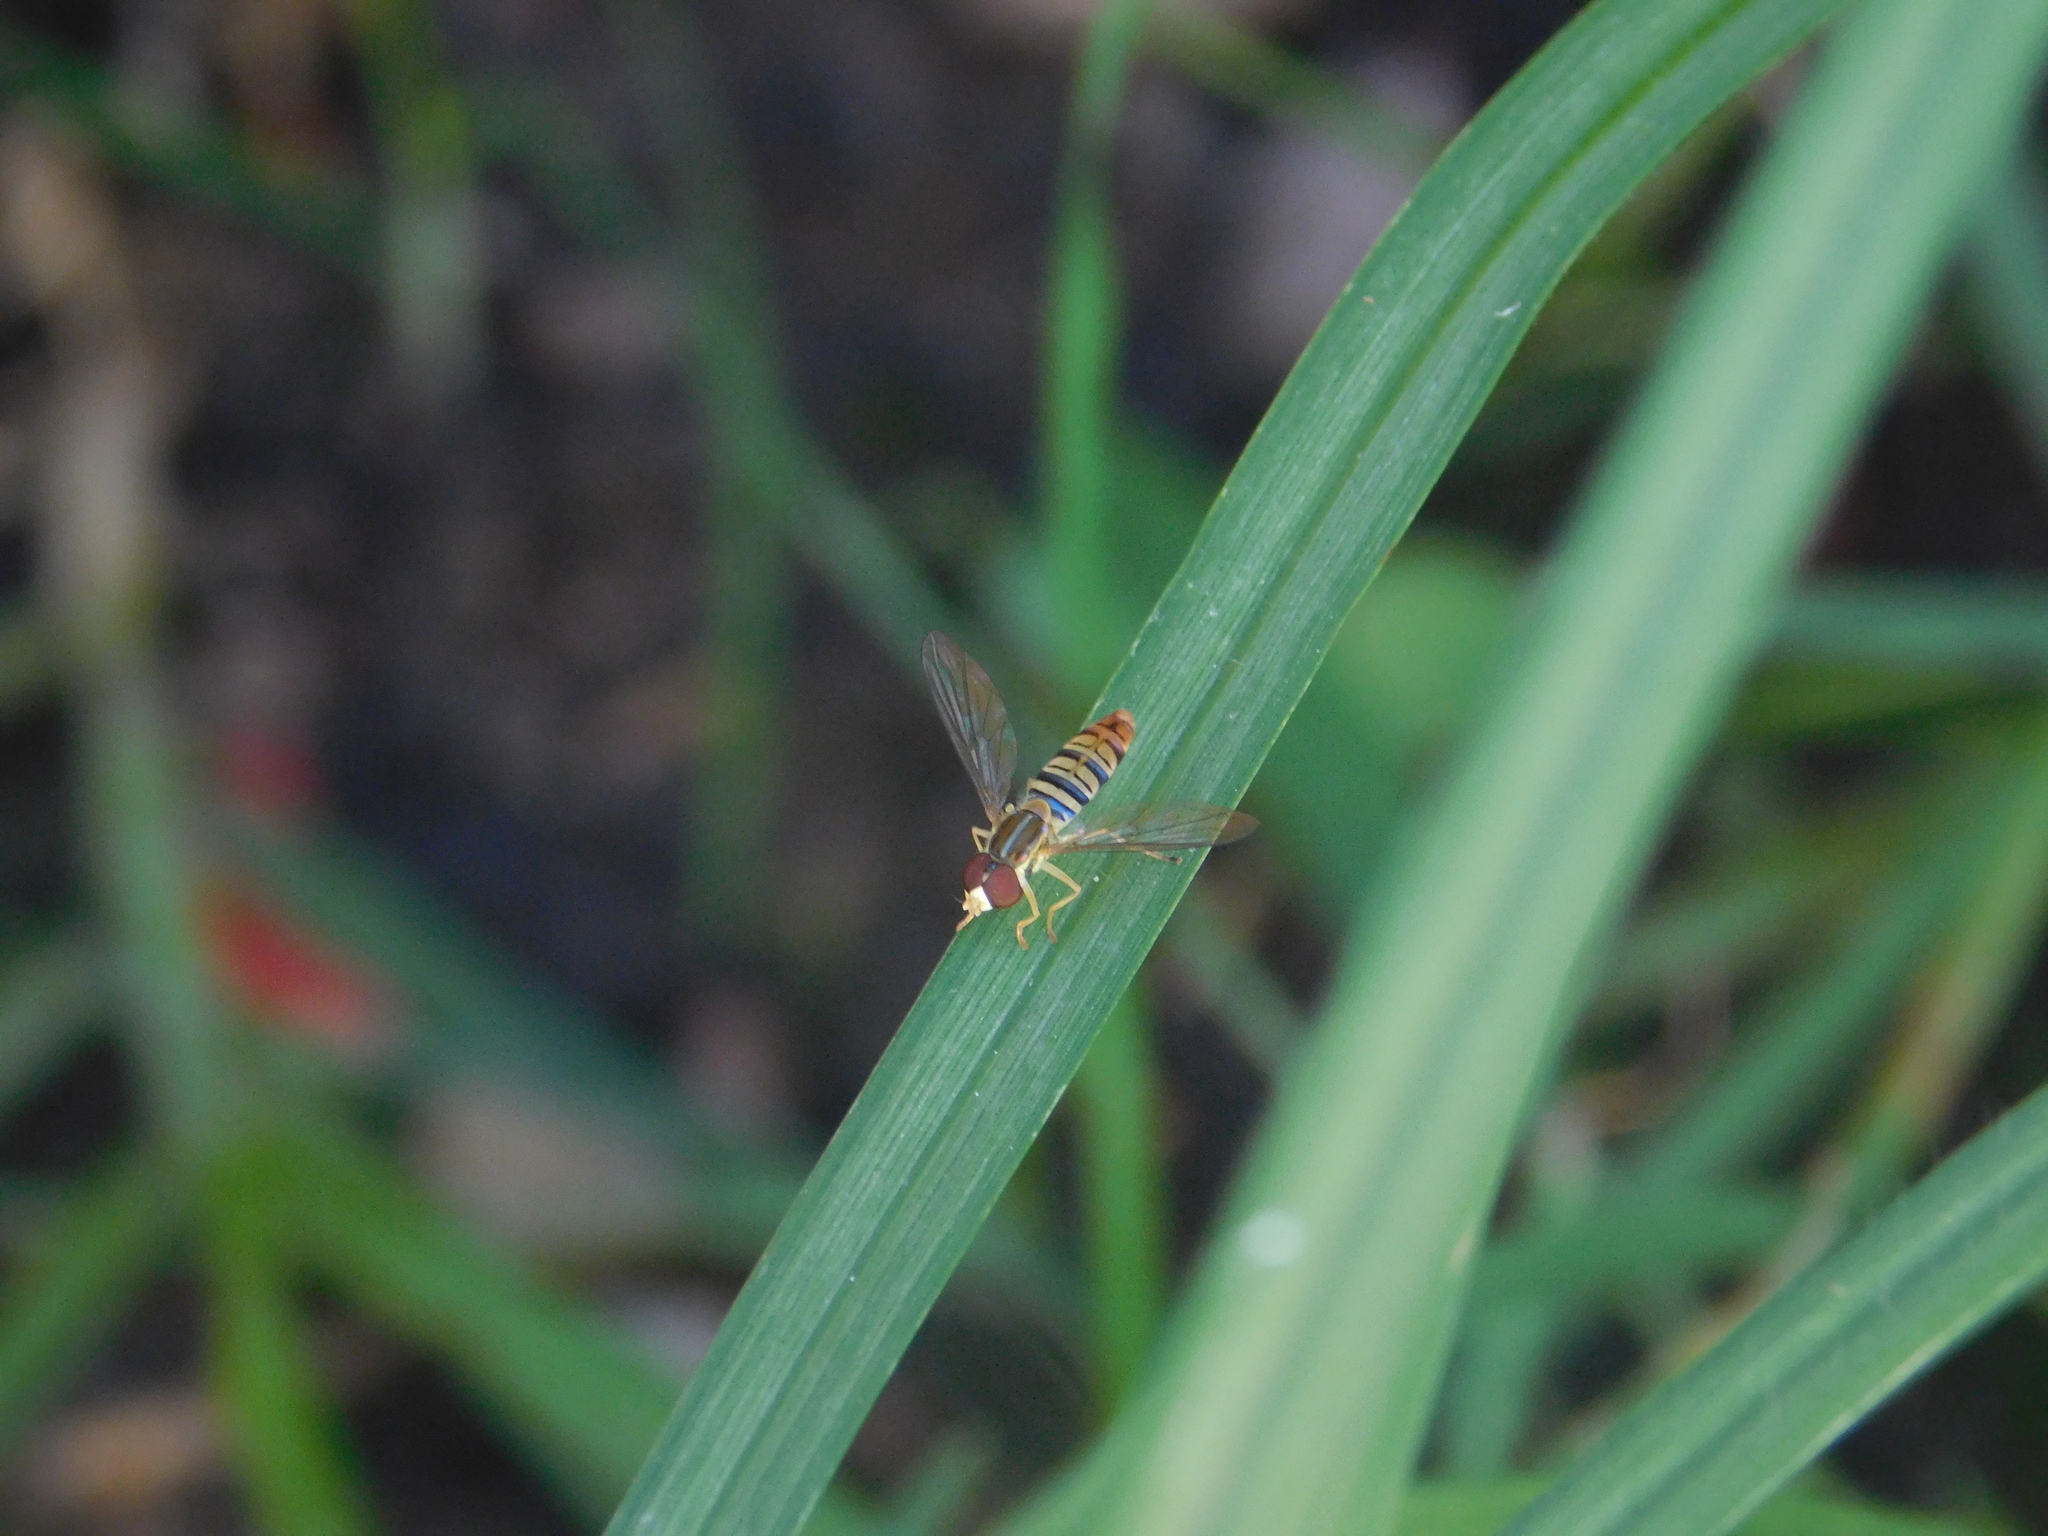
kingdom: Animalia
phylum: Arthropoda
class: Insecta
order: Diptera
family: Syrphidae
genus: Toxomerus
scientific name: Toxomerus politus
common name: Maize calligrapher
